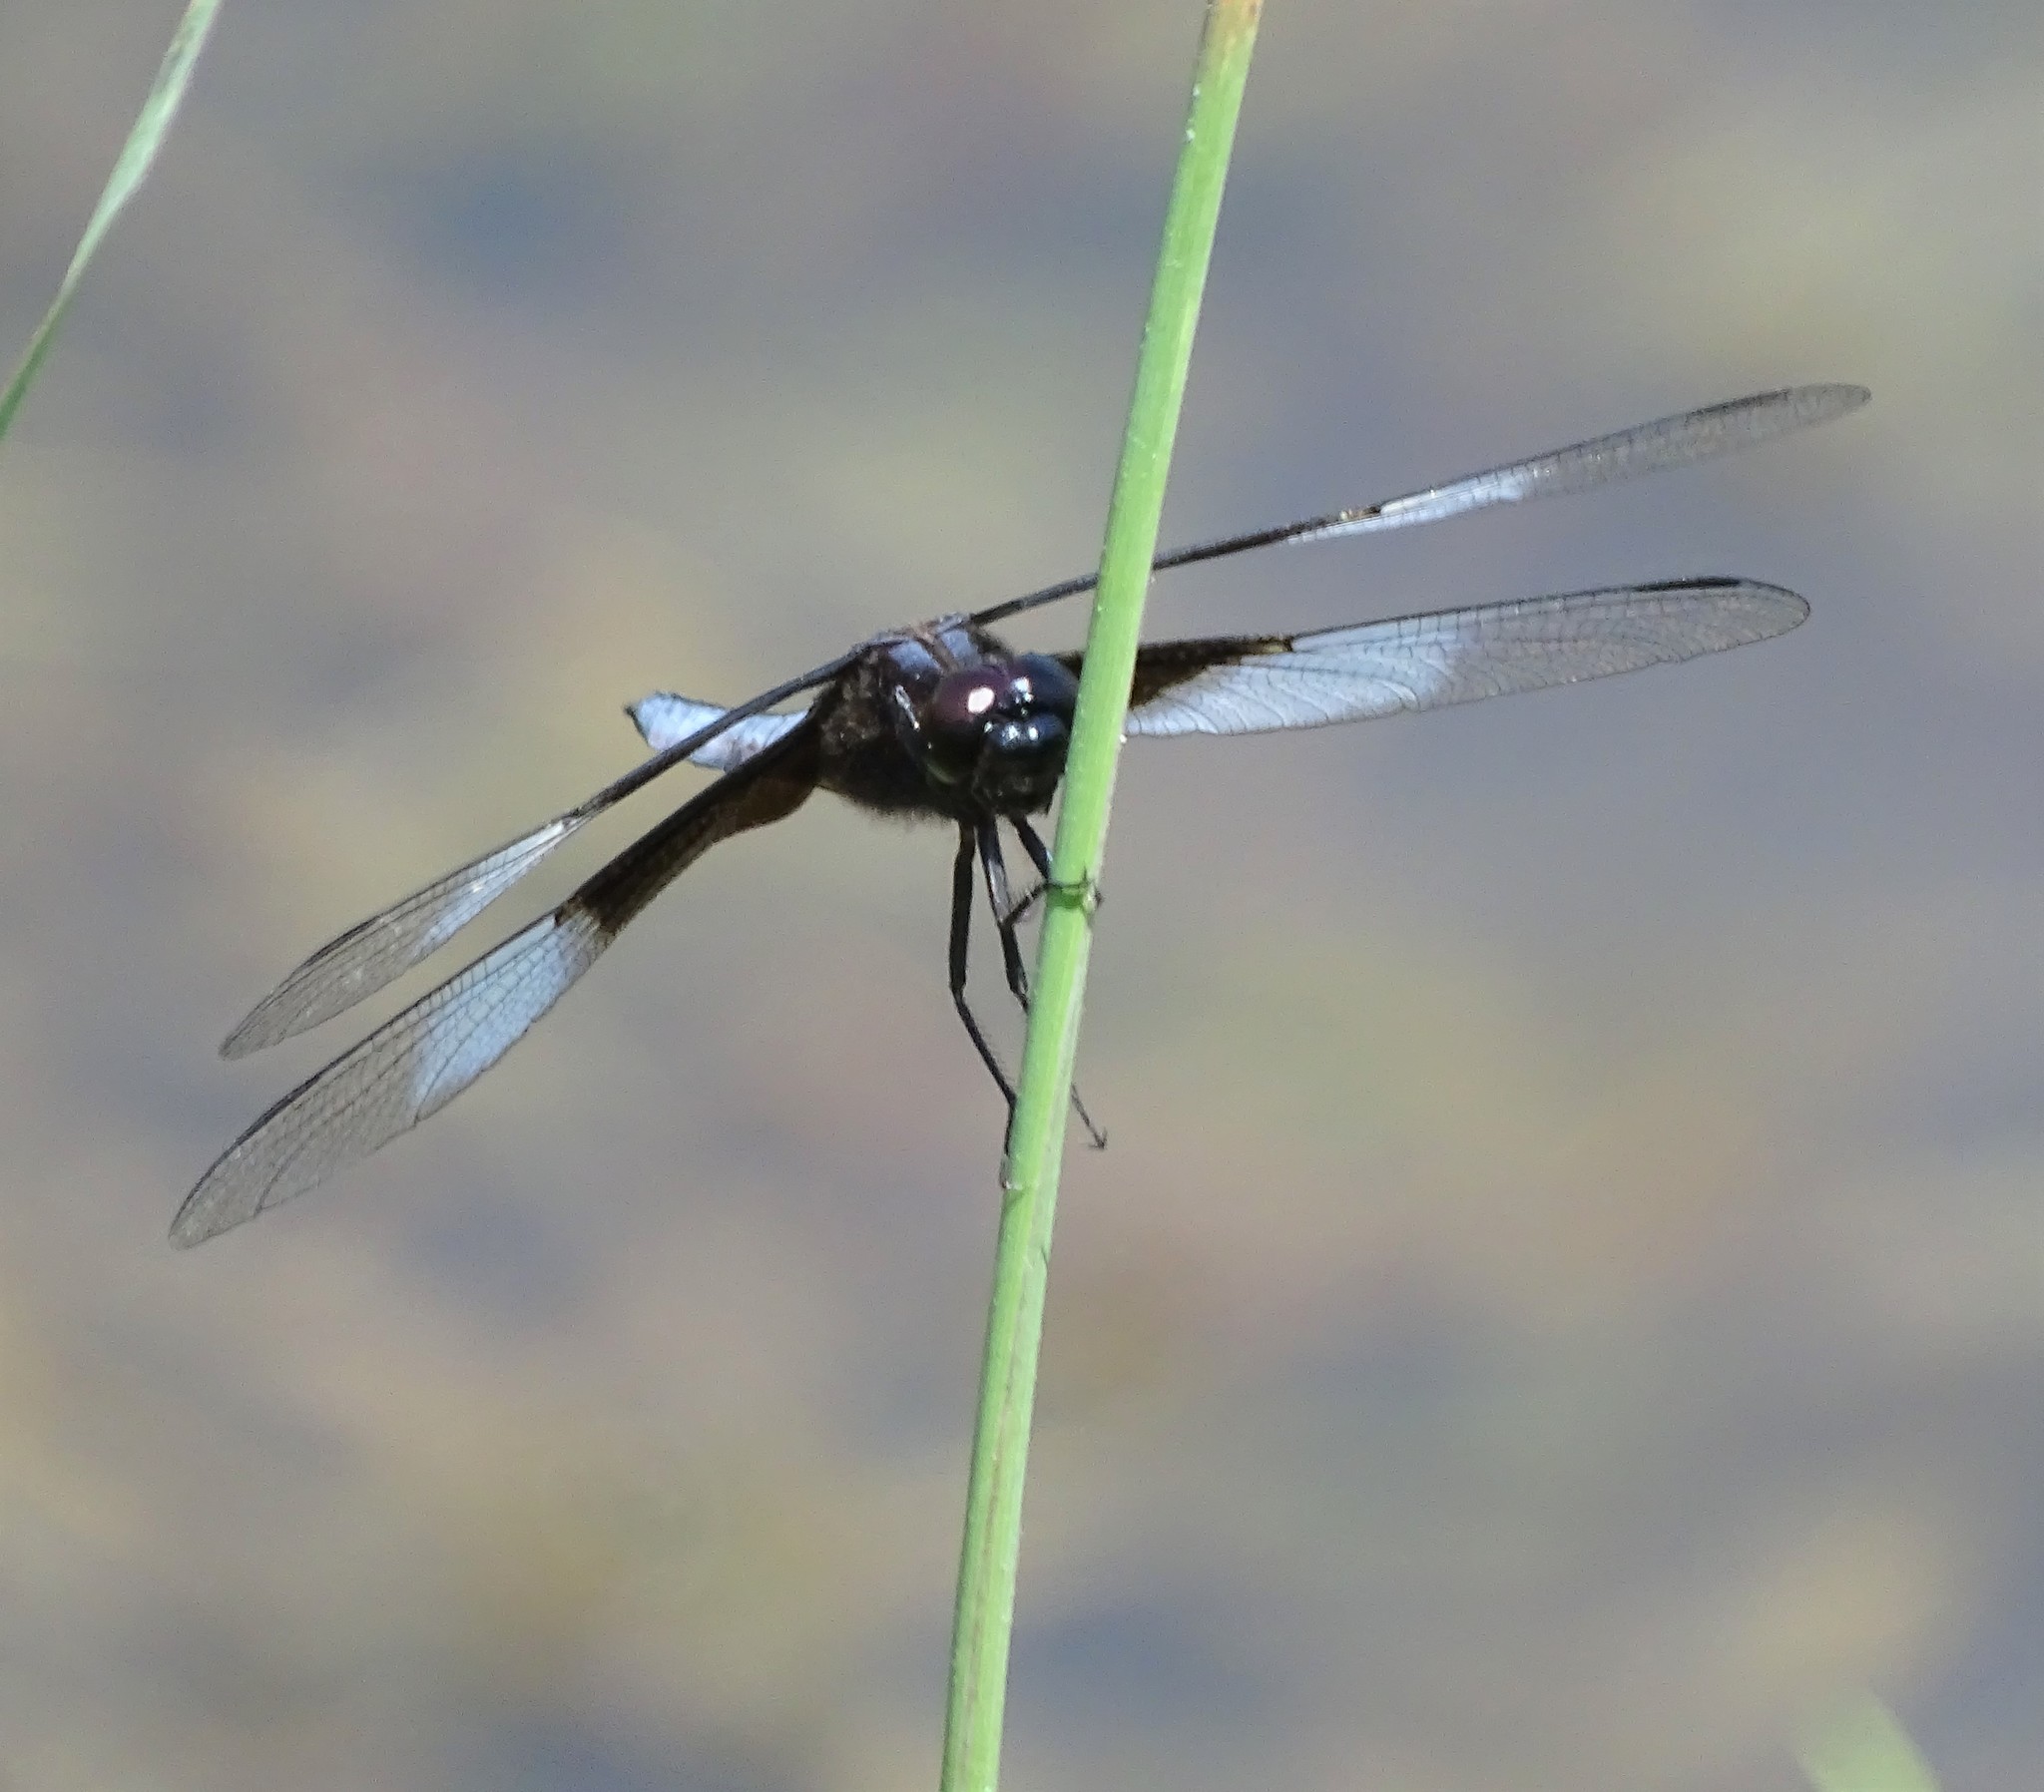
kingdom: Animalia
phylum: Arthropoda
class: Insecta
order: Odonata
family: Libellulidae
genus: Libellula
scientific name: Libellula luctuosa
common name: Widow skimmer
